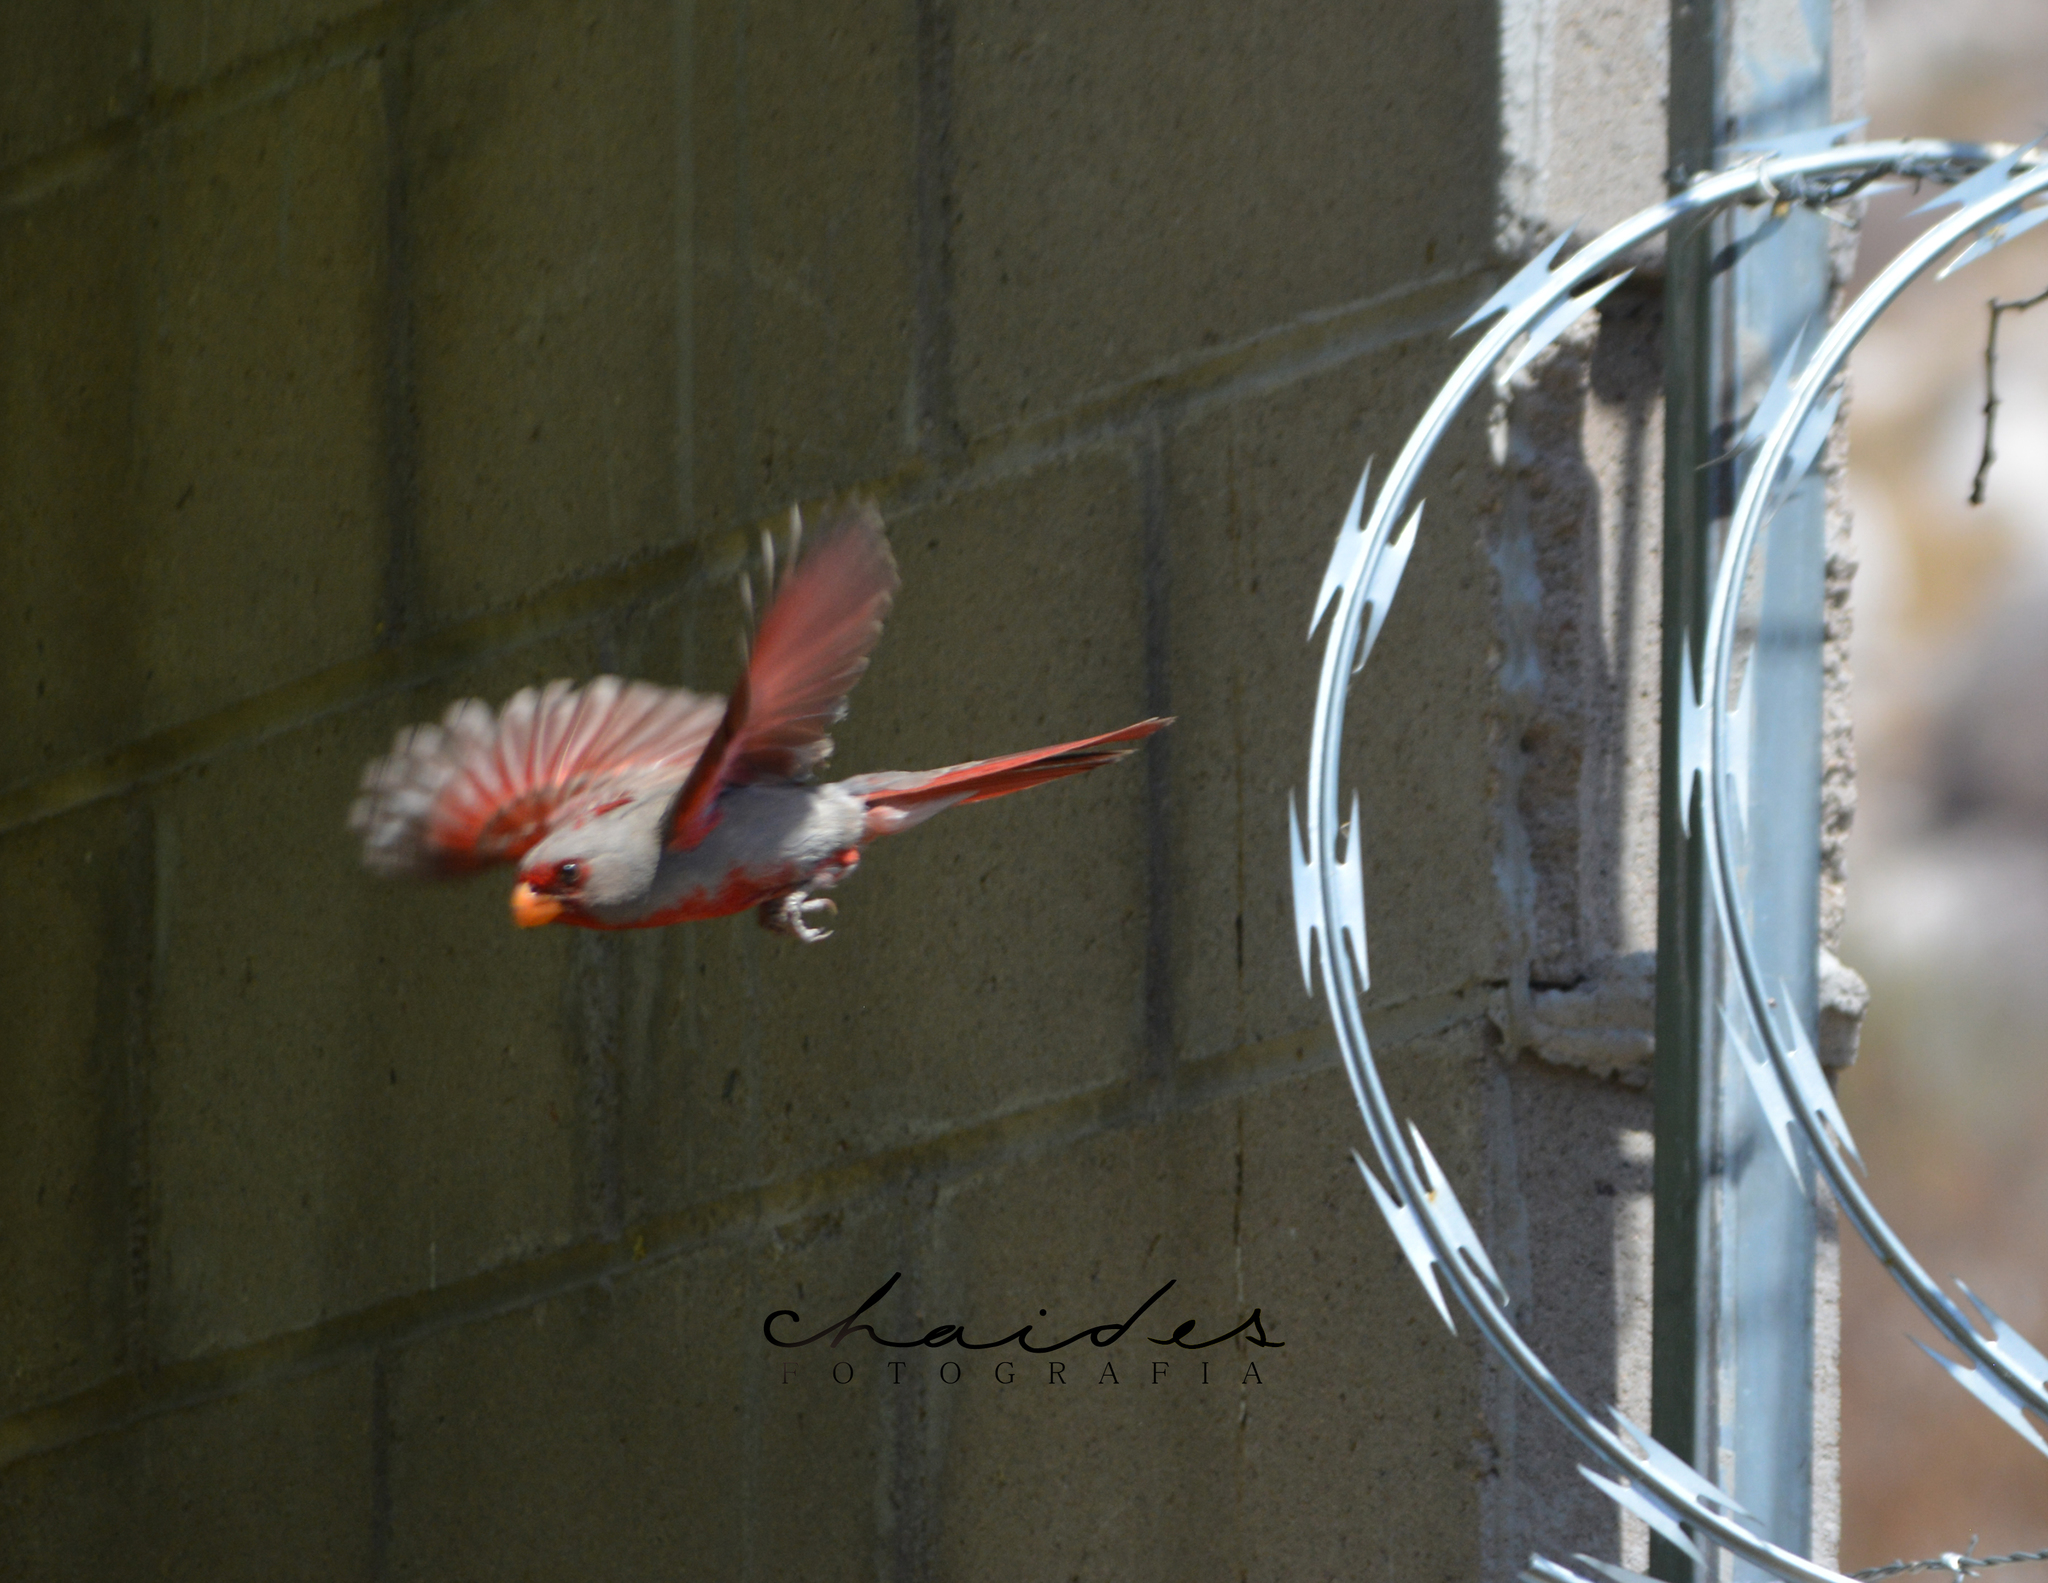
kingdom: Animalia
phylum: Chordata
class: Aves
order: Passeriformes
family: Cardinalidae
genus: Cardinalis
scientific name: Cardinalis sinuatus
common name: Pyrrhuloxia
